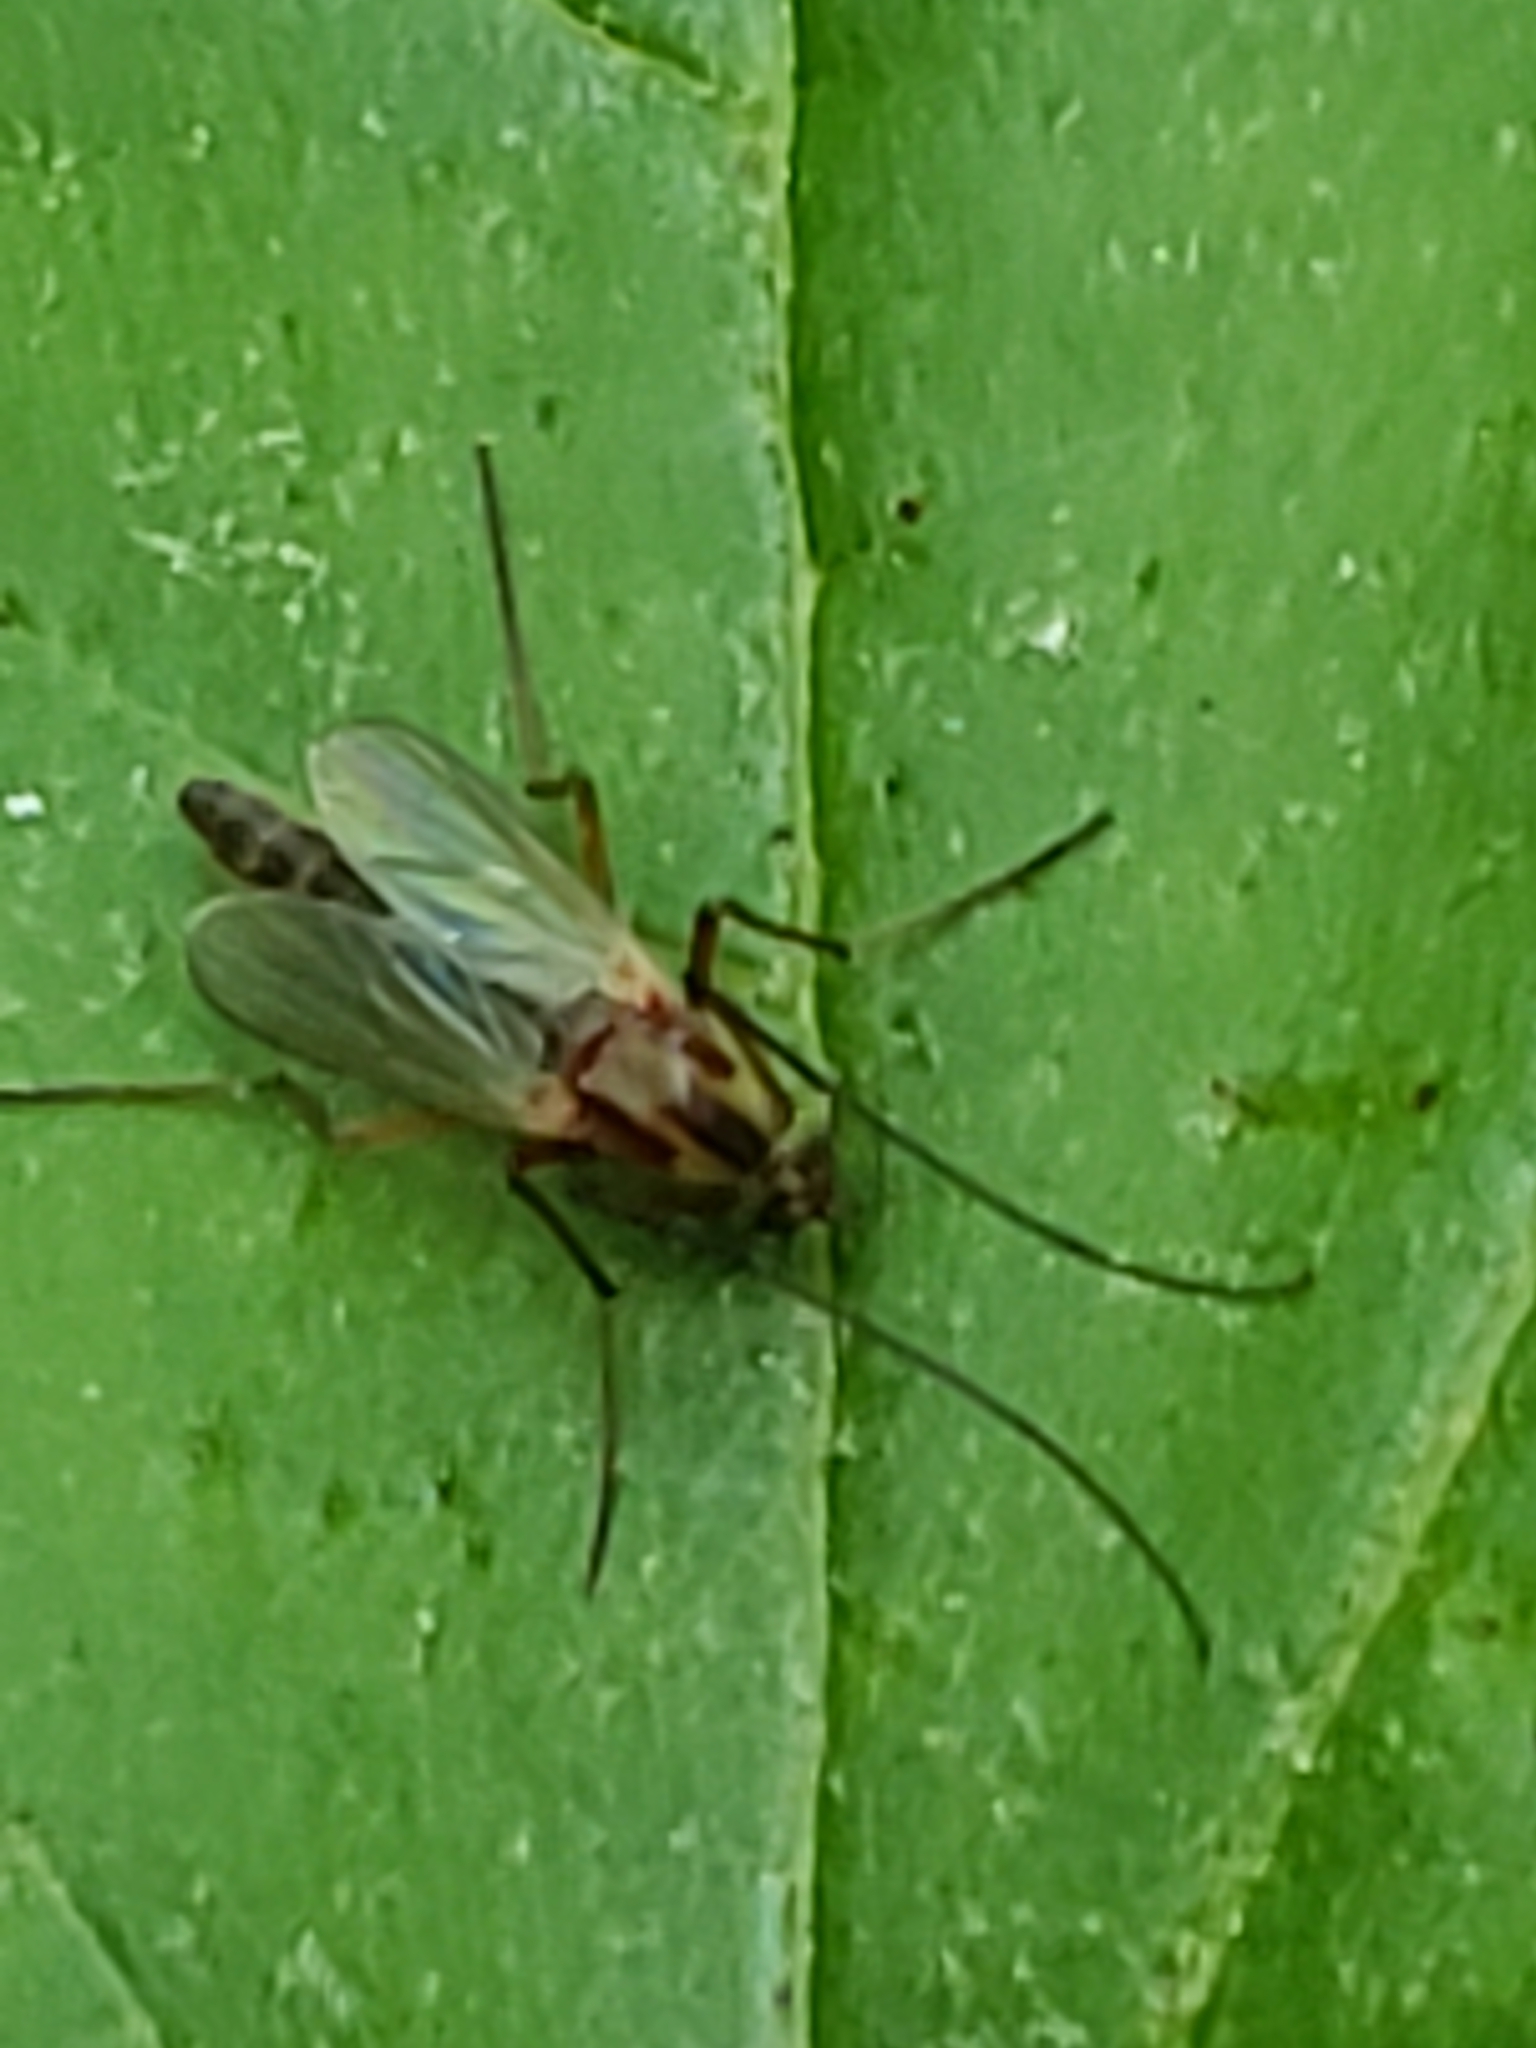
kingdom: Animalia
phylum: Arthropoda
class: Insecta
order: Diptera
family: Chironomidae
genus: Chironomus
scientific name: Chironomus ochreatus
